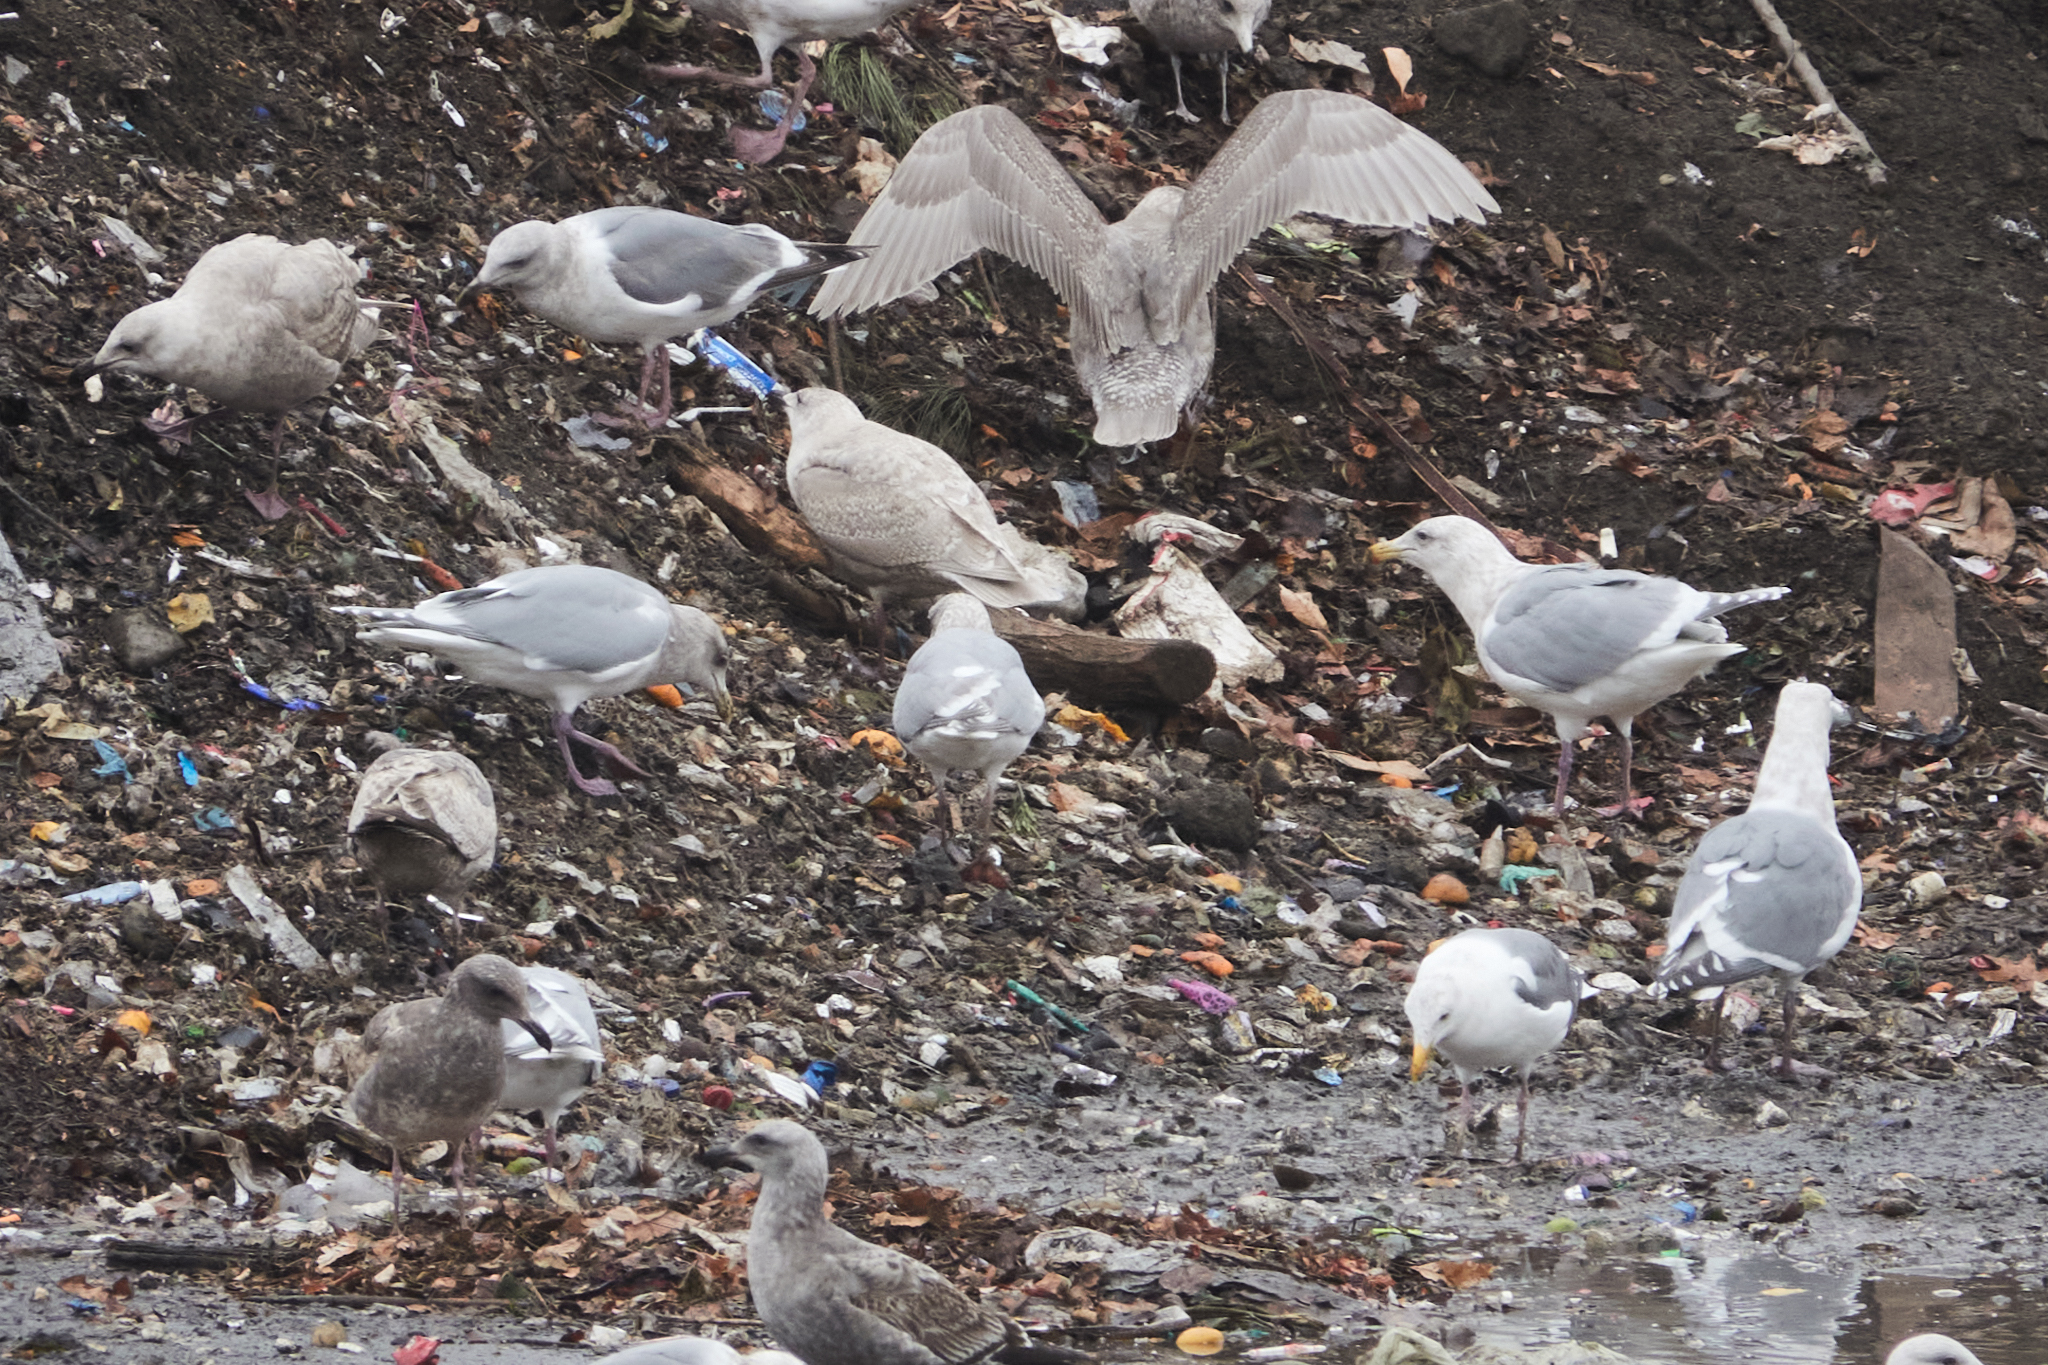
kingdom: Animalia
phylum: Chordata
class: Aves
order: Charadriiformes
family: Laridae
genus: Larus
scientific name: Larus glaucescens
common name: Glaucous-winged gull
